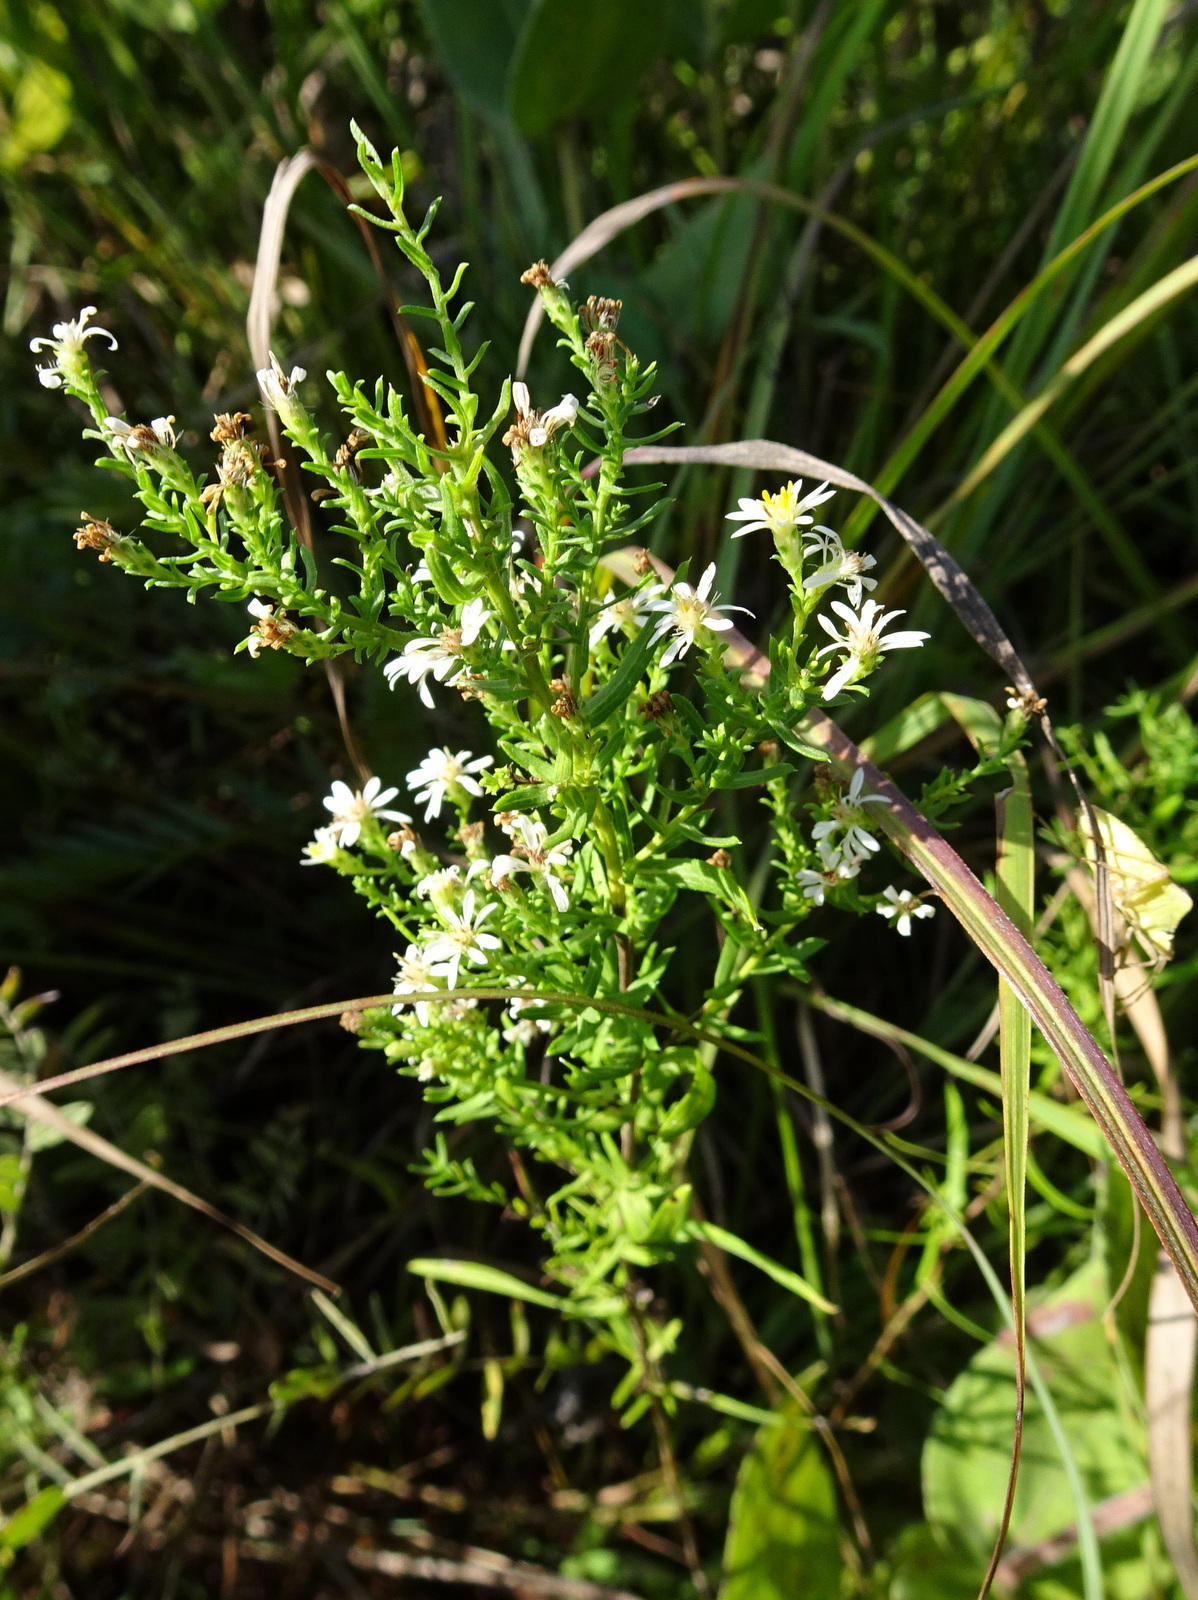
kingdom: Plantae
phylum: Tracheophyta
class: Magnoliopsida
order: Asterales
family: Asteraceae
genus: Symphyotrichum
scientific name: Symphyotrichum ericoides
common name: Heath aster
